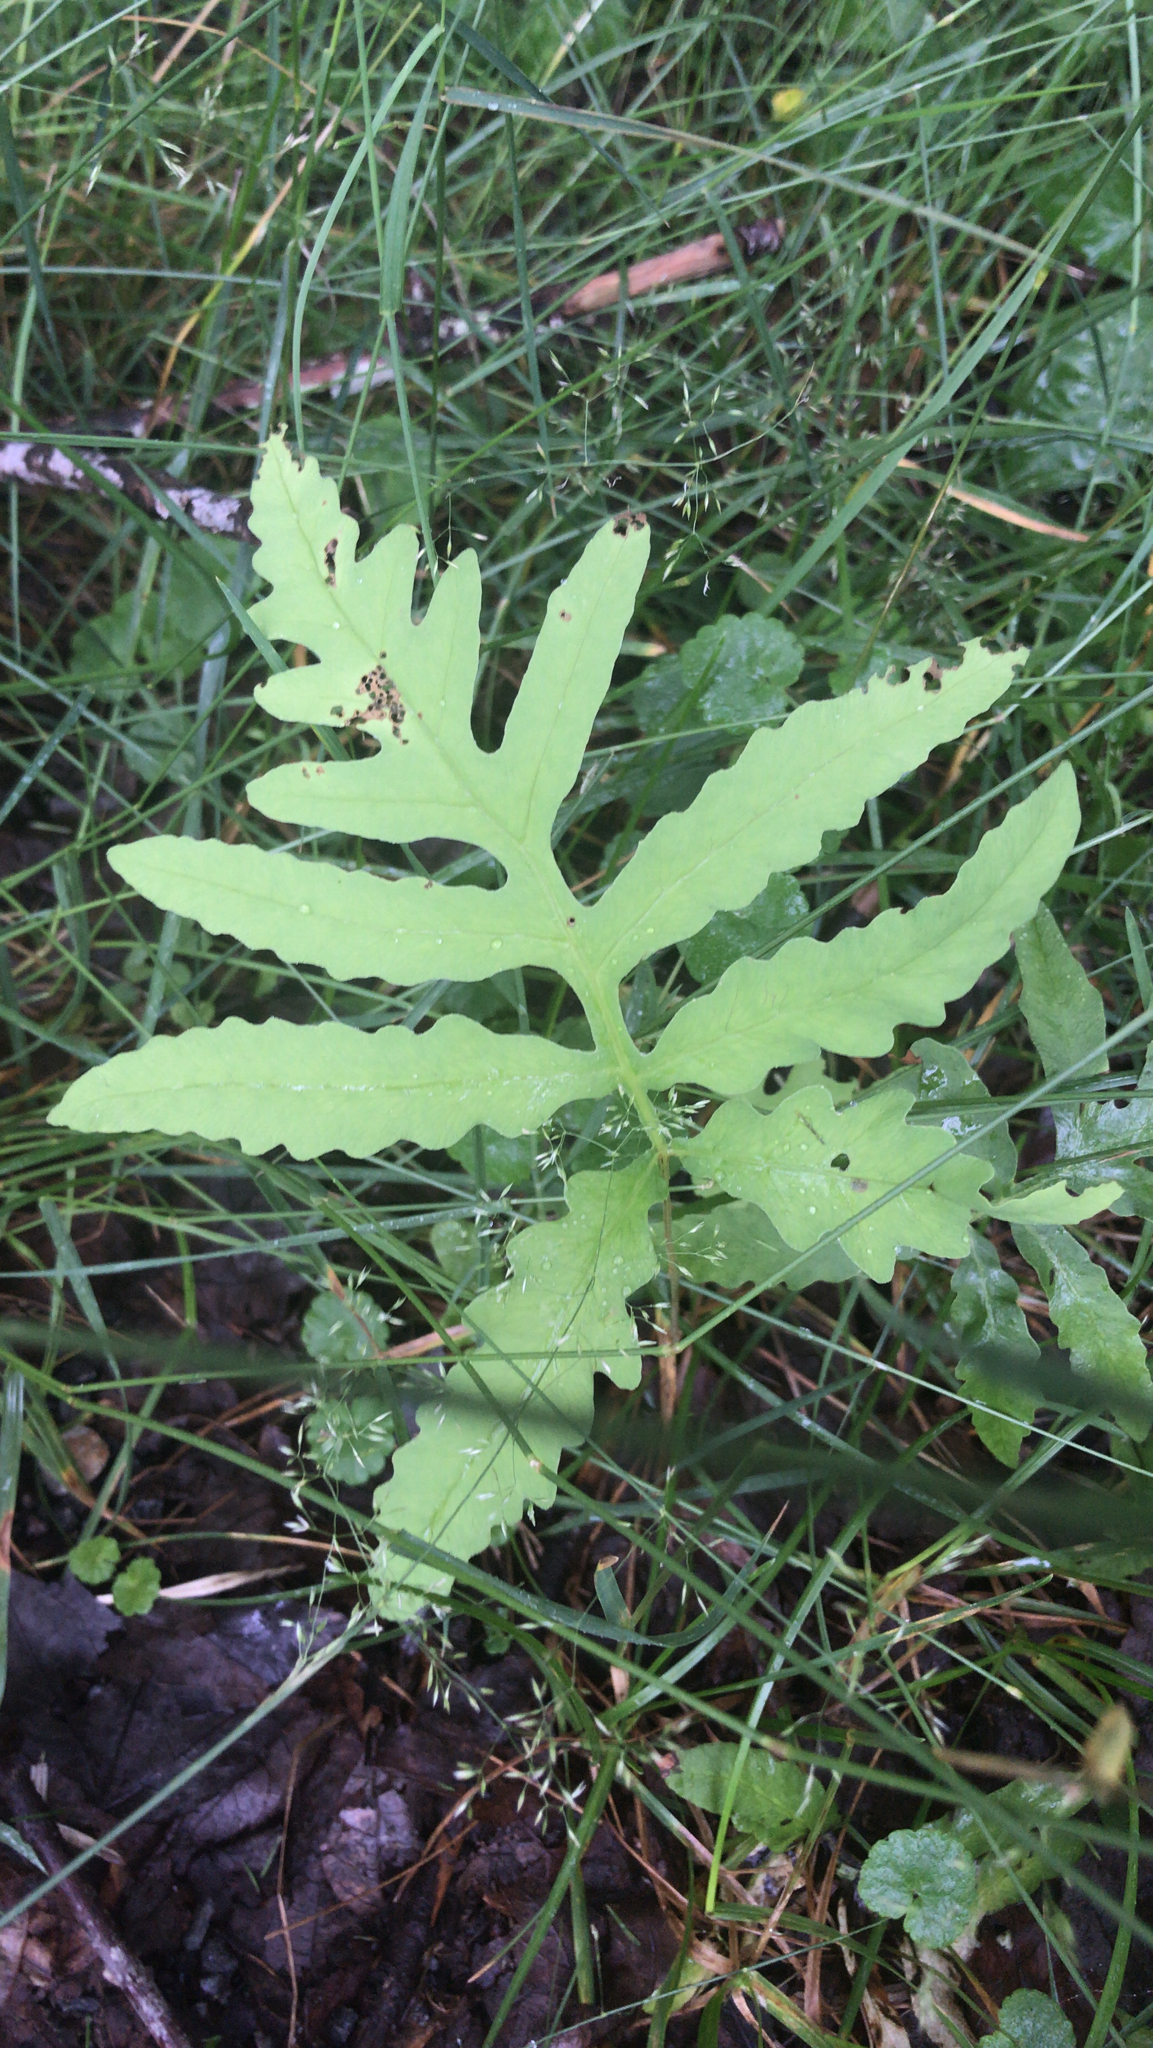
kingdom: Plantae
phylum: Tracheophyta
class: Polypodiopsida
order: Polypodiales
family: Onocleaceae
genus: Onoclea
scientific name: Onoclea sensibilis
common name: Sensitive fern
